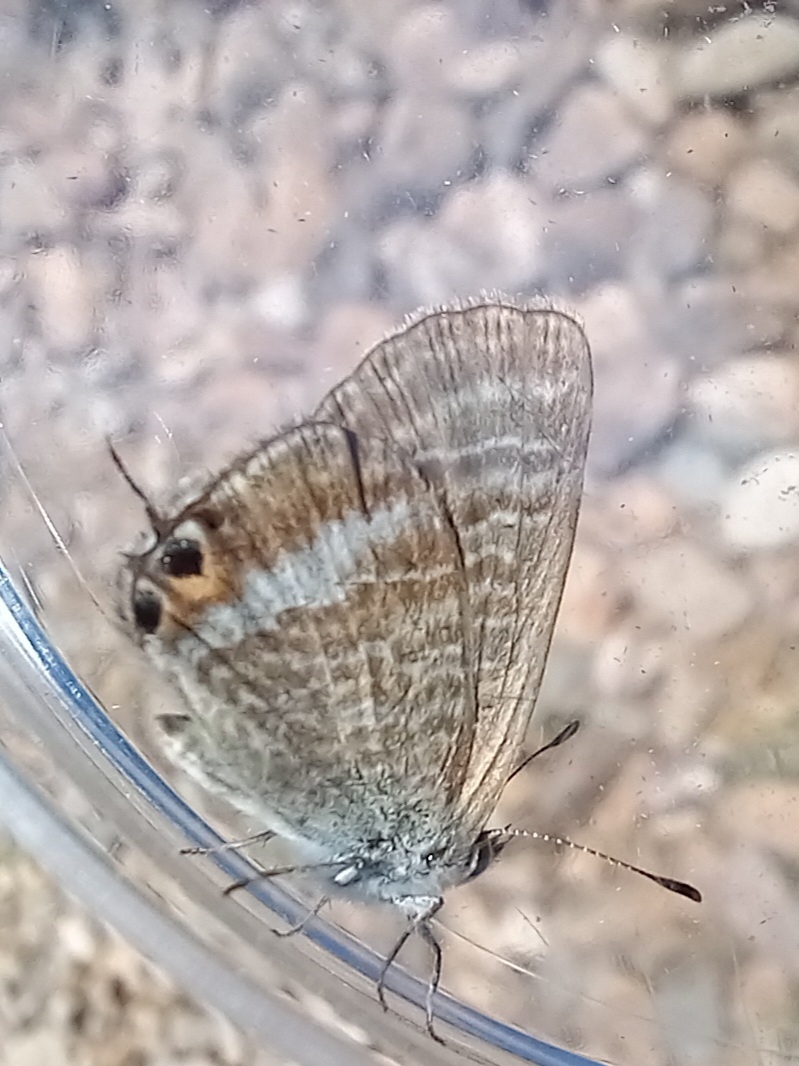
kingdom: Animalia
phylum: Arthropoda
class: Insecta
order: Lepidoptera
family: Lycaenidae
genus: Lampides
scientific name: Lampides boeticus
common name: Long-tailed blue
